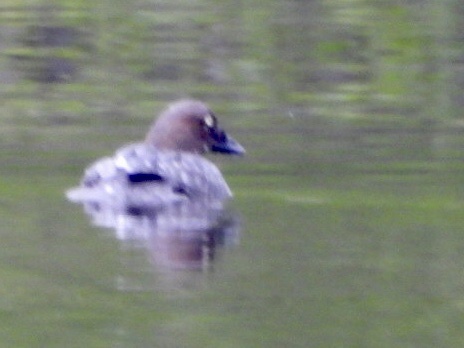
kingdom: Animalia
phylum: Chordata
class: Aves
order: Anseriformes
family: Anatidae
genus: Bucephala
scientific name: Bucephala clangula
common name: Common goldeneye
